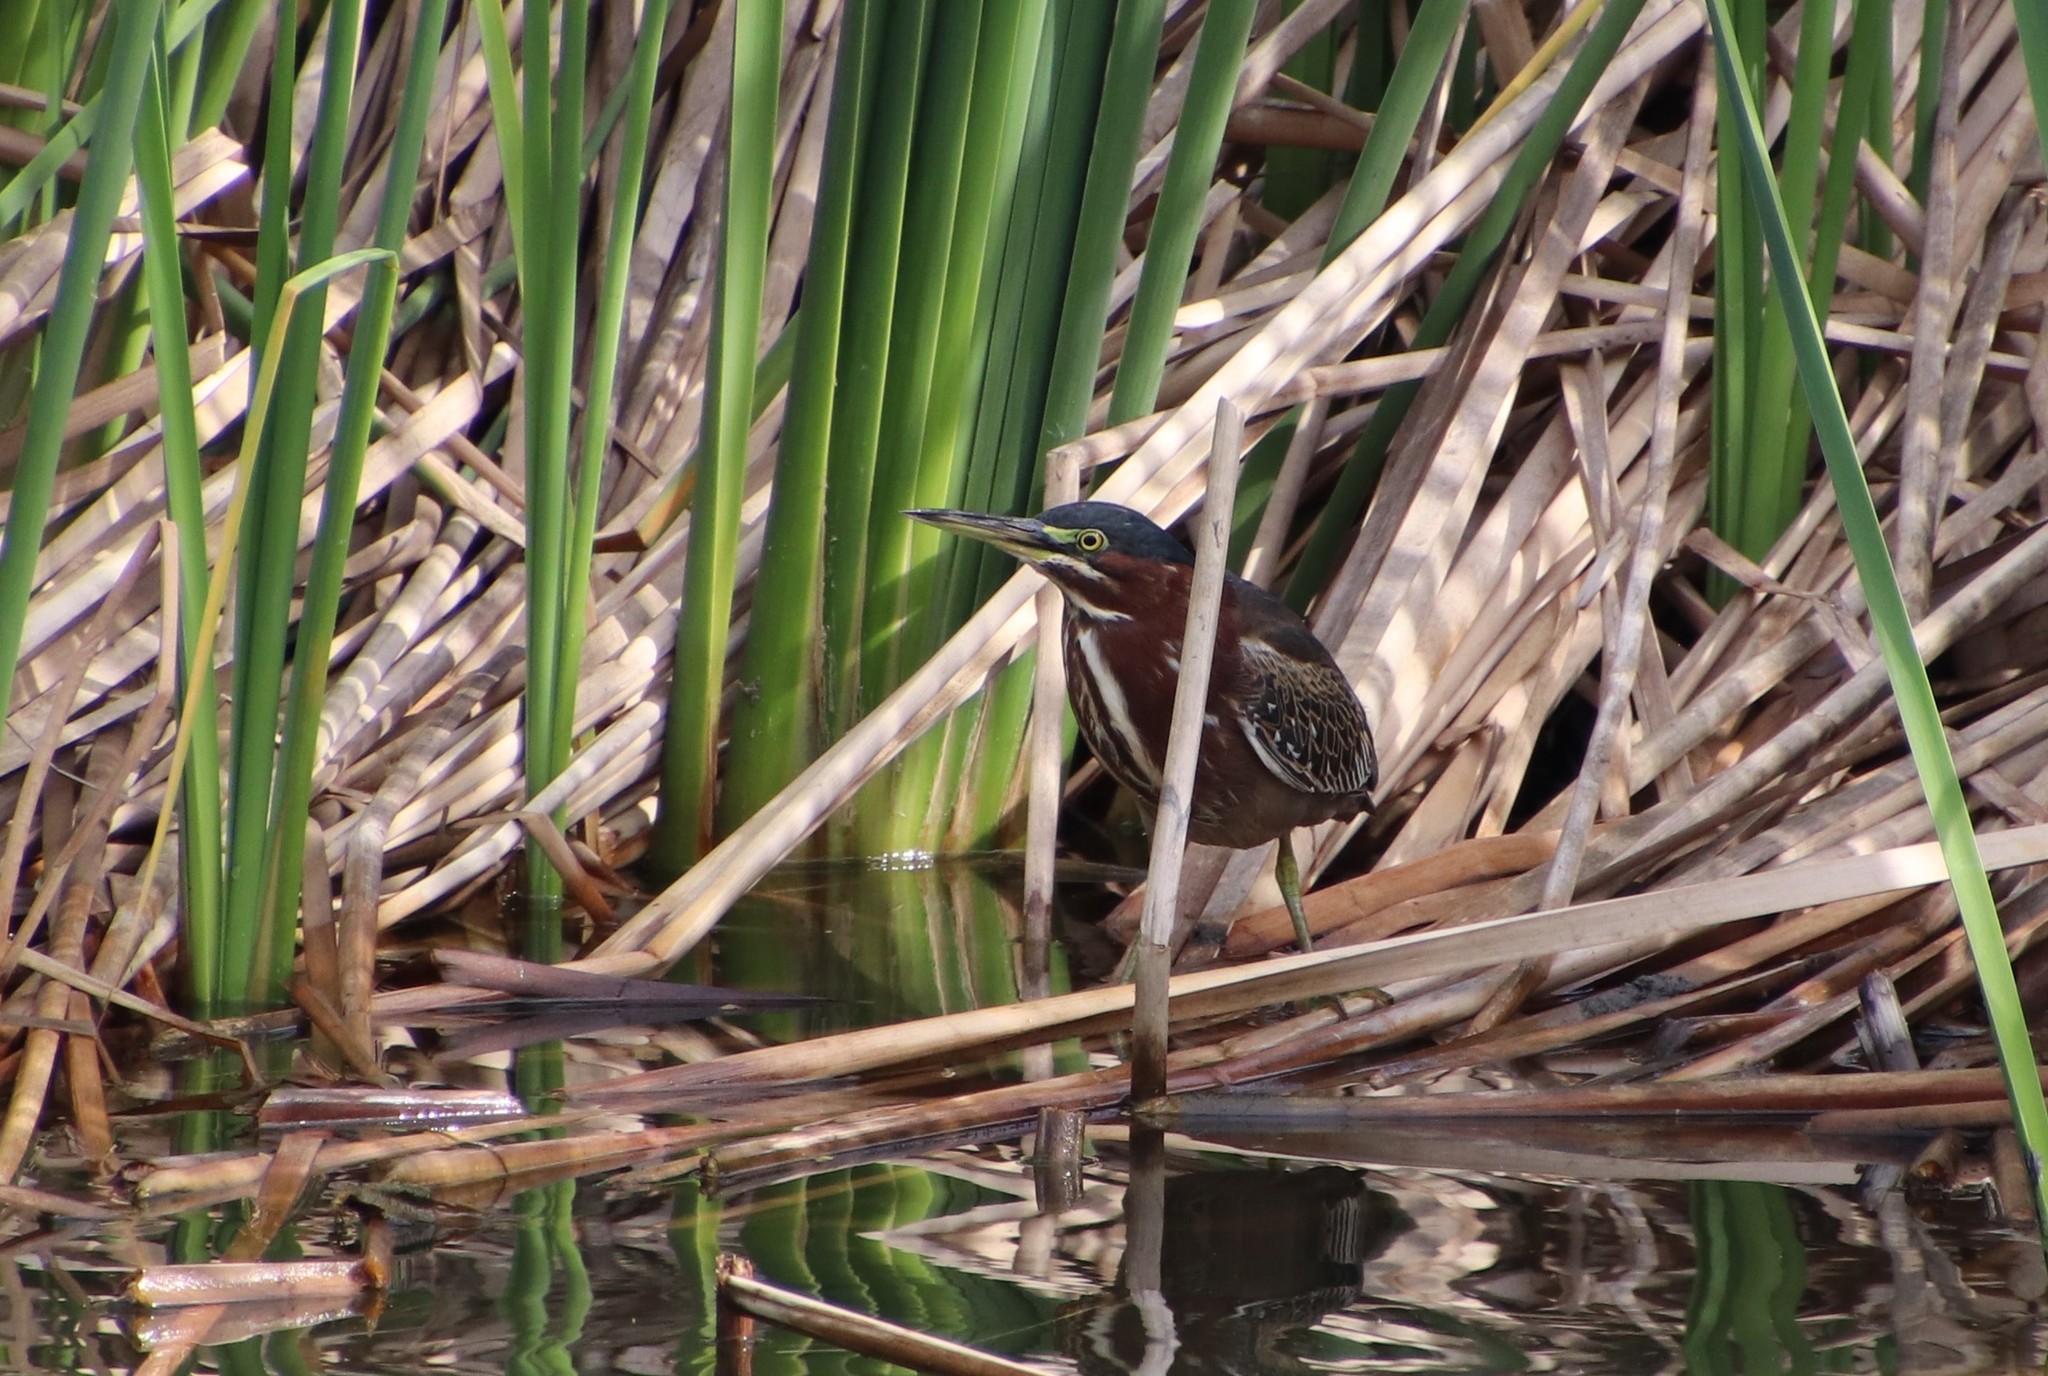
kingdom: Animalia
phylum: Chordata
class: Aves
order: Pelecaniformes
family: Ardeidae
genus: Butorides
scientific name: Butorides virescens
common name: Green heron
